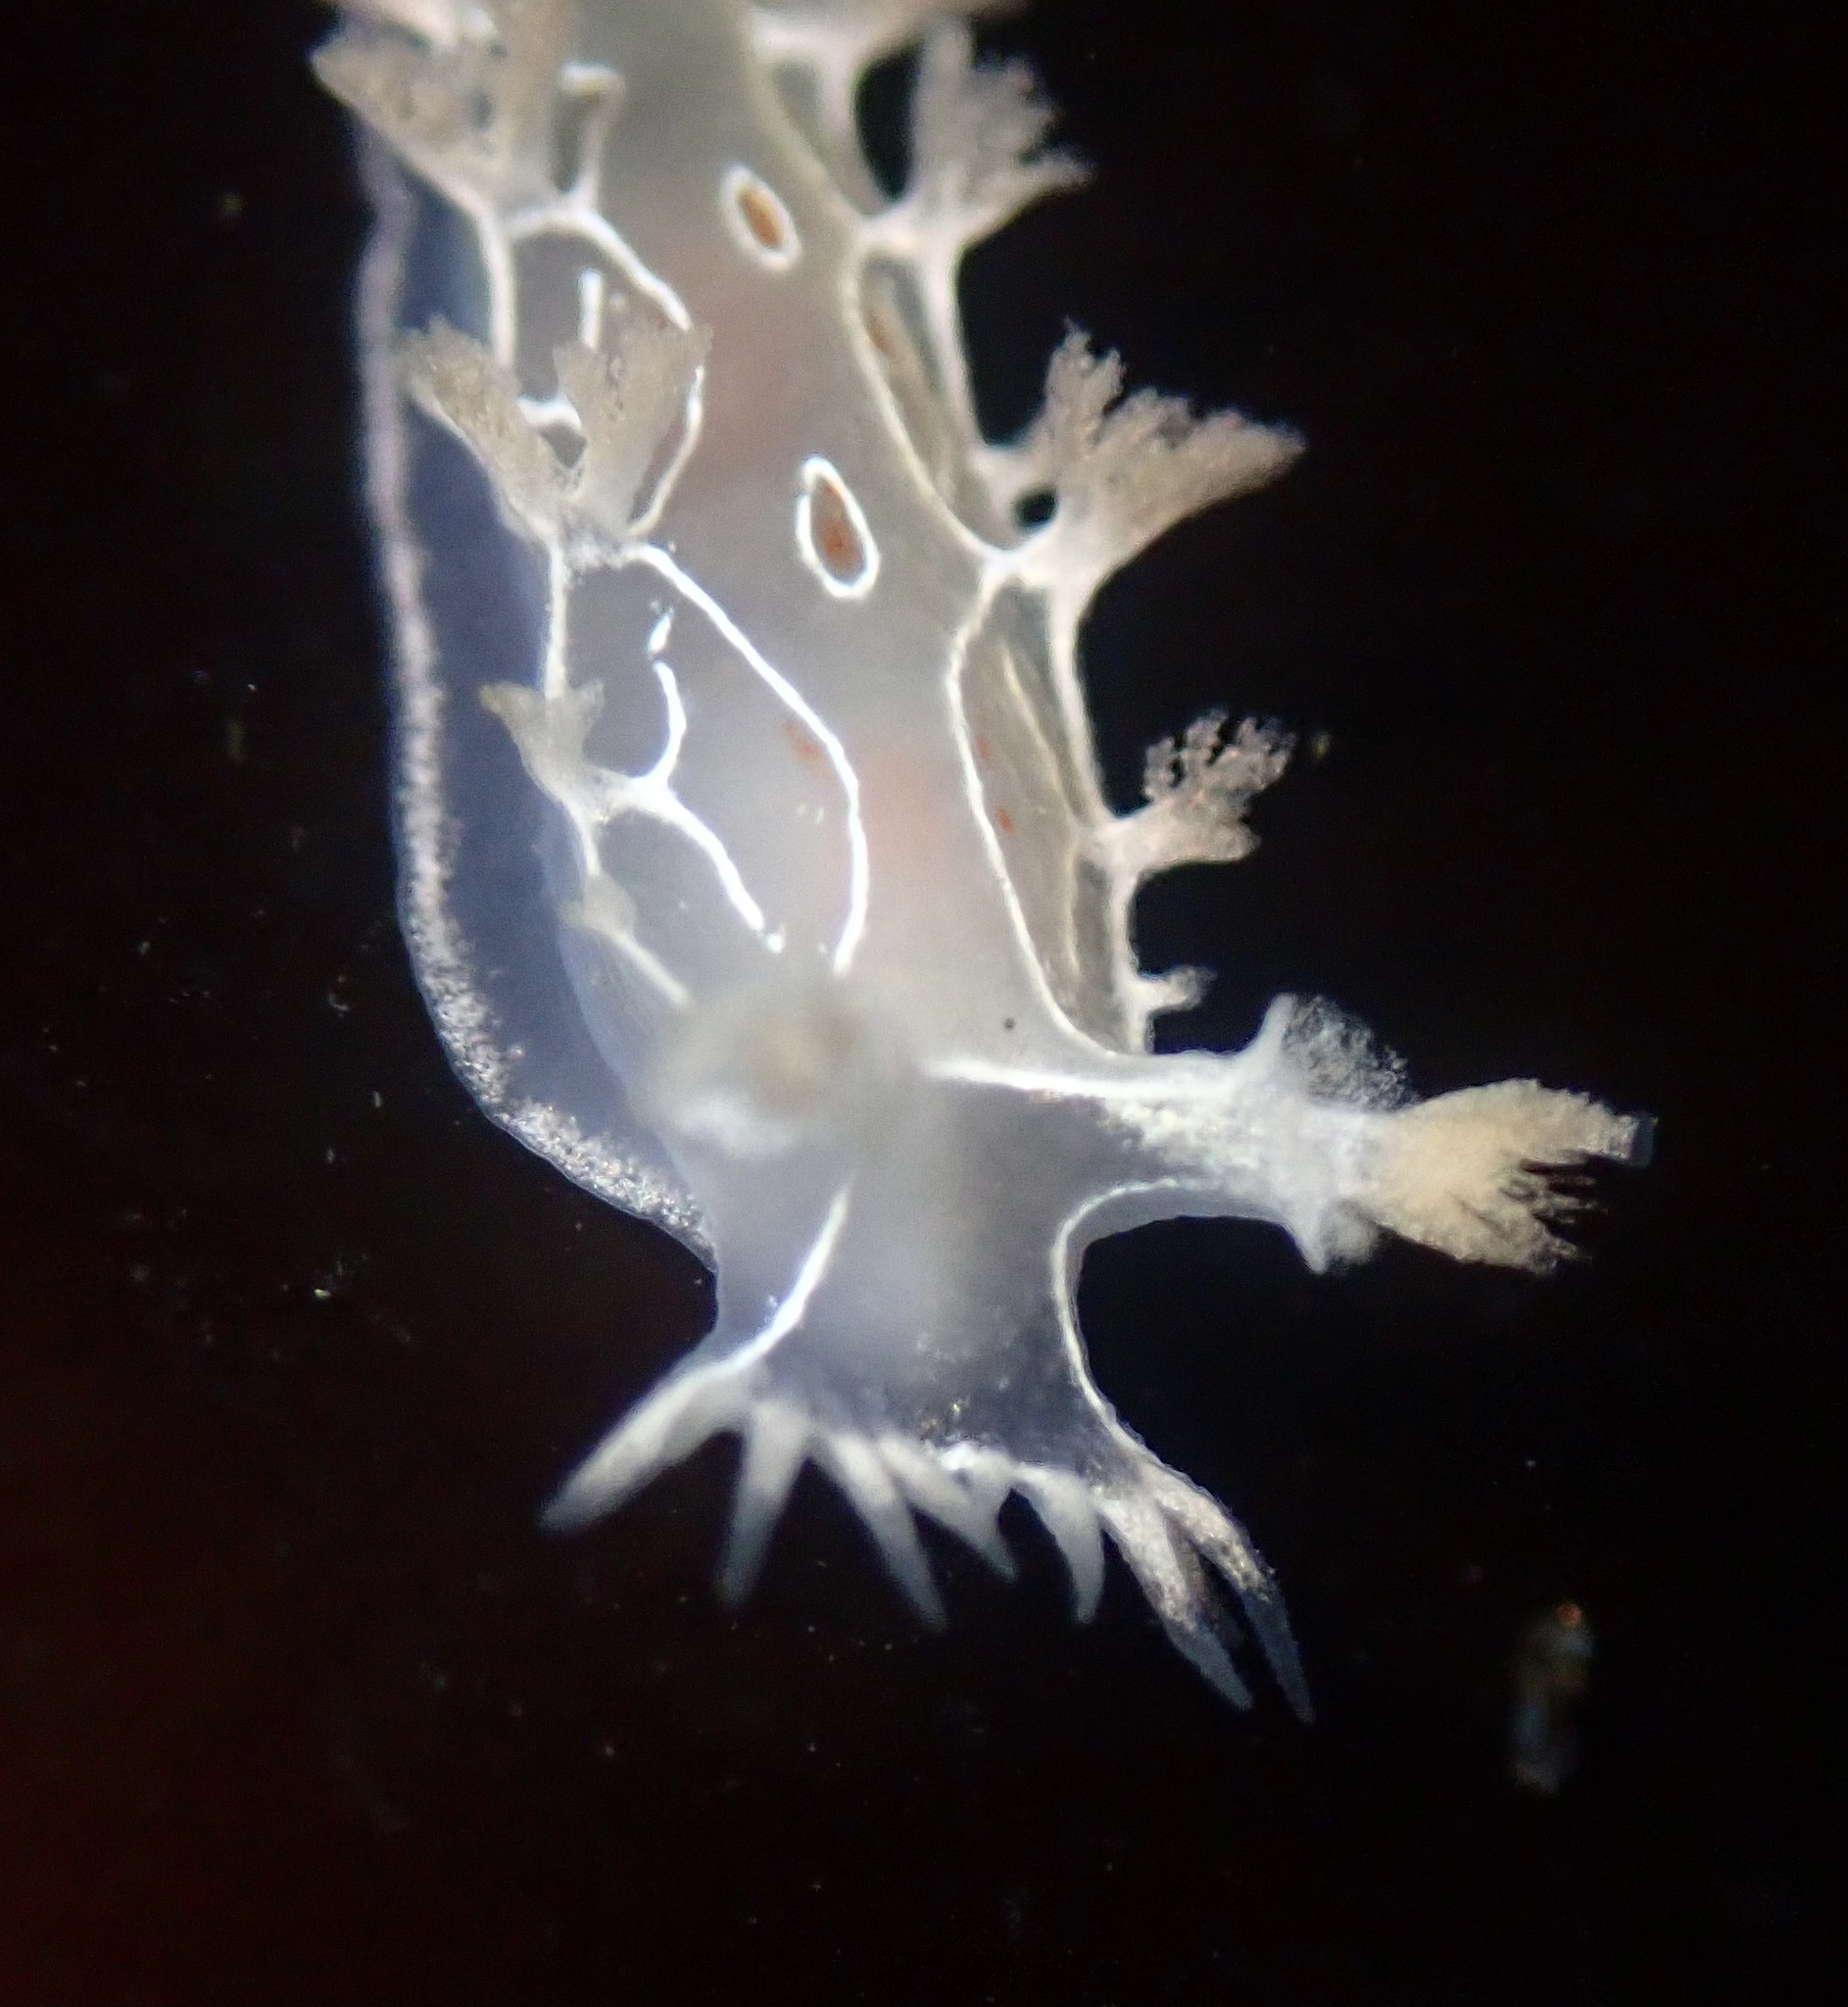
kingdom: Animalia
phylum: Mollusca
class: Gastropoda
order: Nudibranchia
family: Tritoniidae
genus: Tritonia
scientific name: Tritonia festiva
